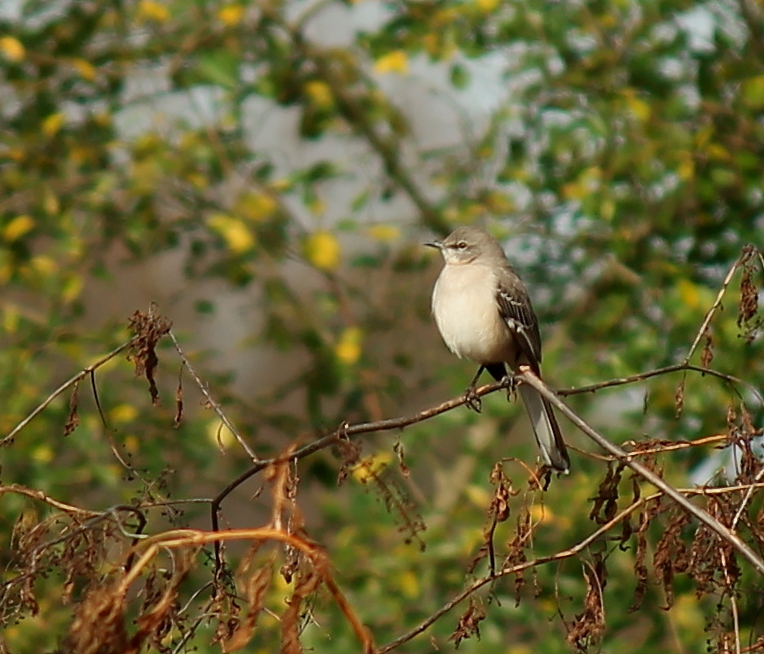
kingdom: Animalia
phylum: Chordata
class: Aves
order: Passeriformes
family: Mimidae
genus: Mimus
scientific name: Mimus polyglottos
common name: Northern mockingbird
